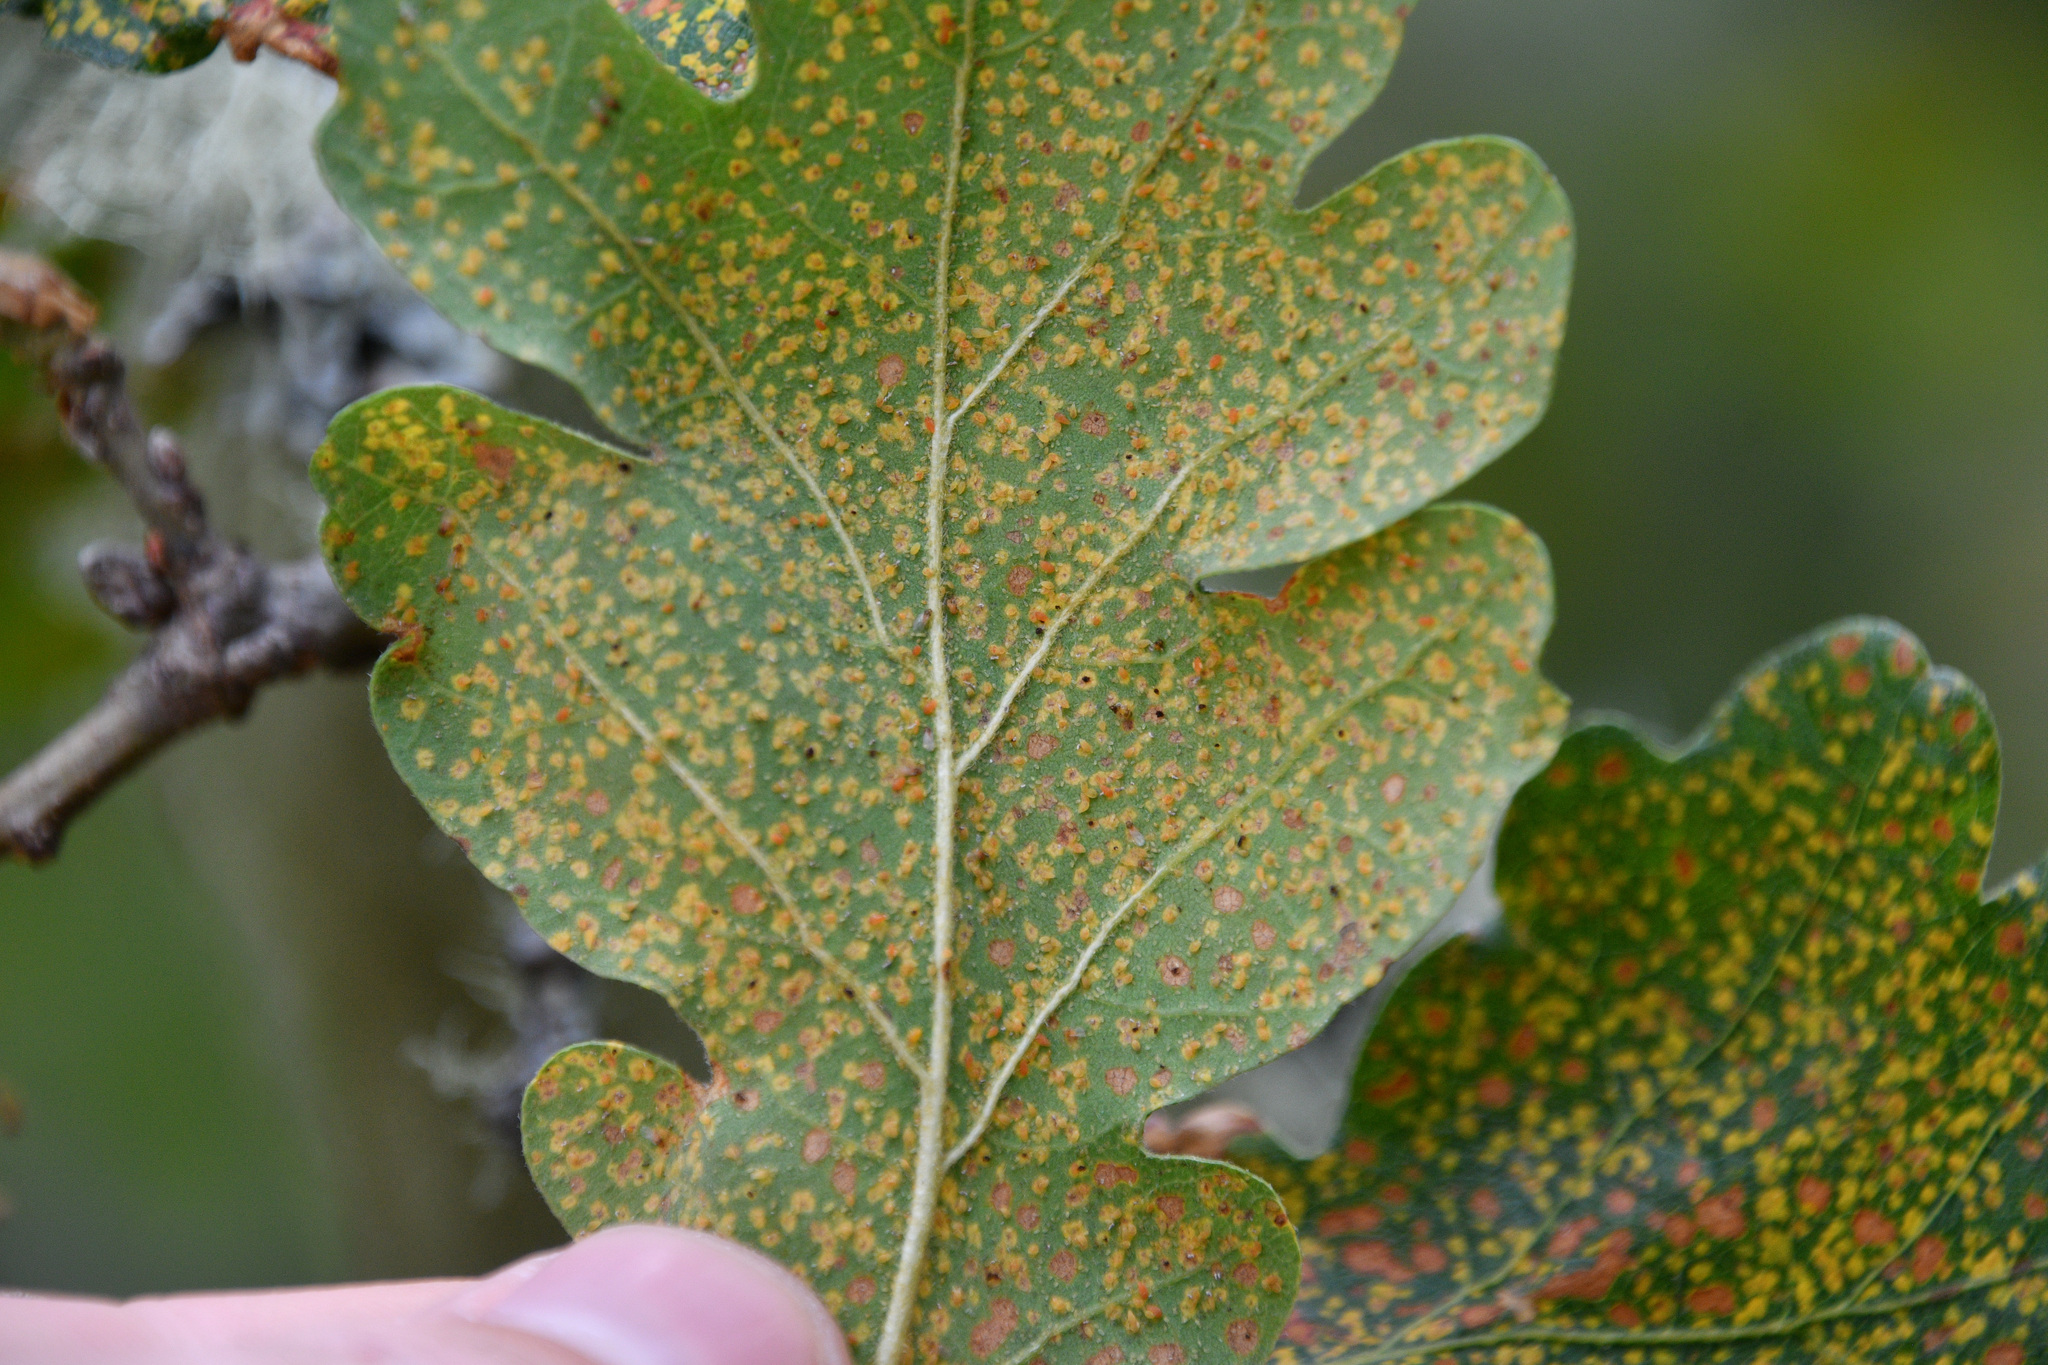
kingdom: Plantae
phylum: Tracheophyta
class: Magnoliopsida
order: Fagales
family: Fagaceae
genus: Quercus
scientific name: Quercus garryana
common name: Garry oak
